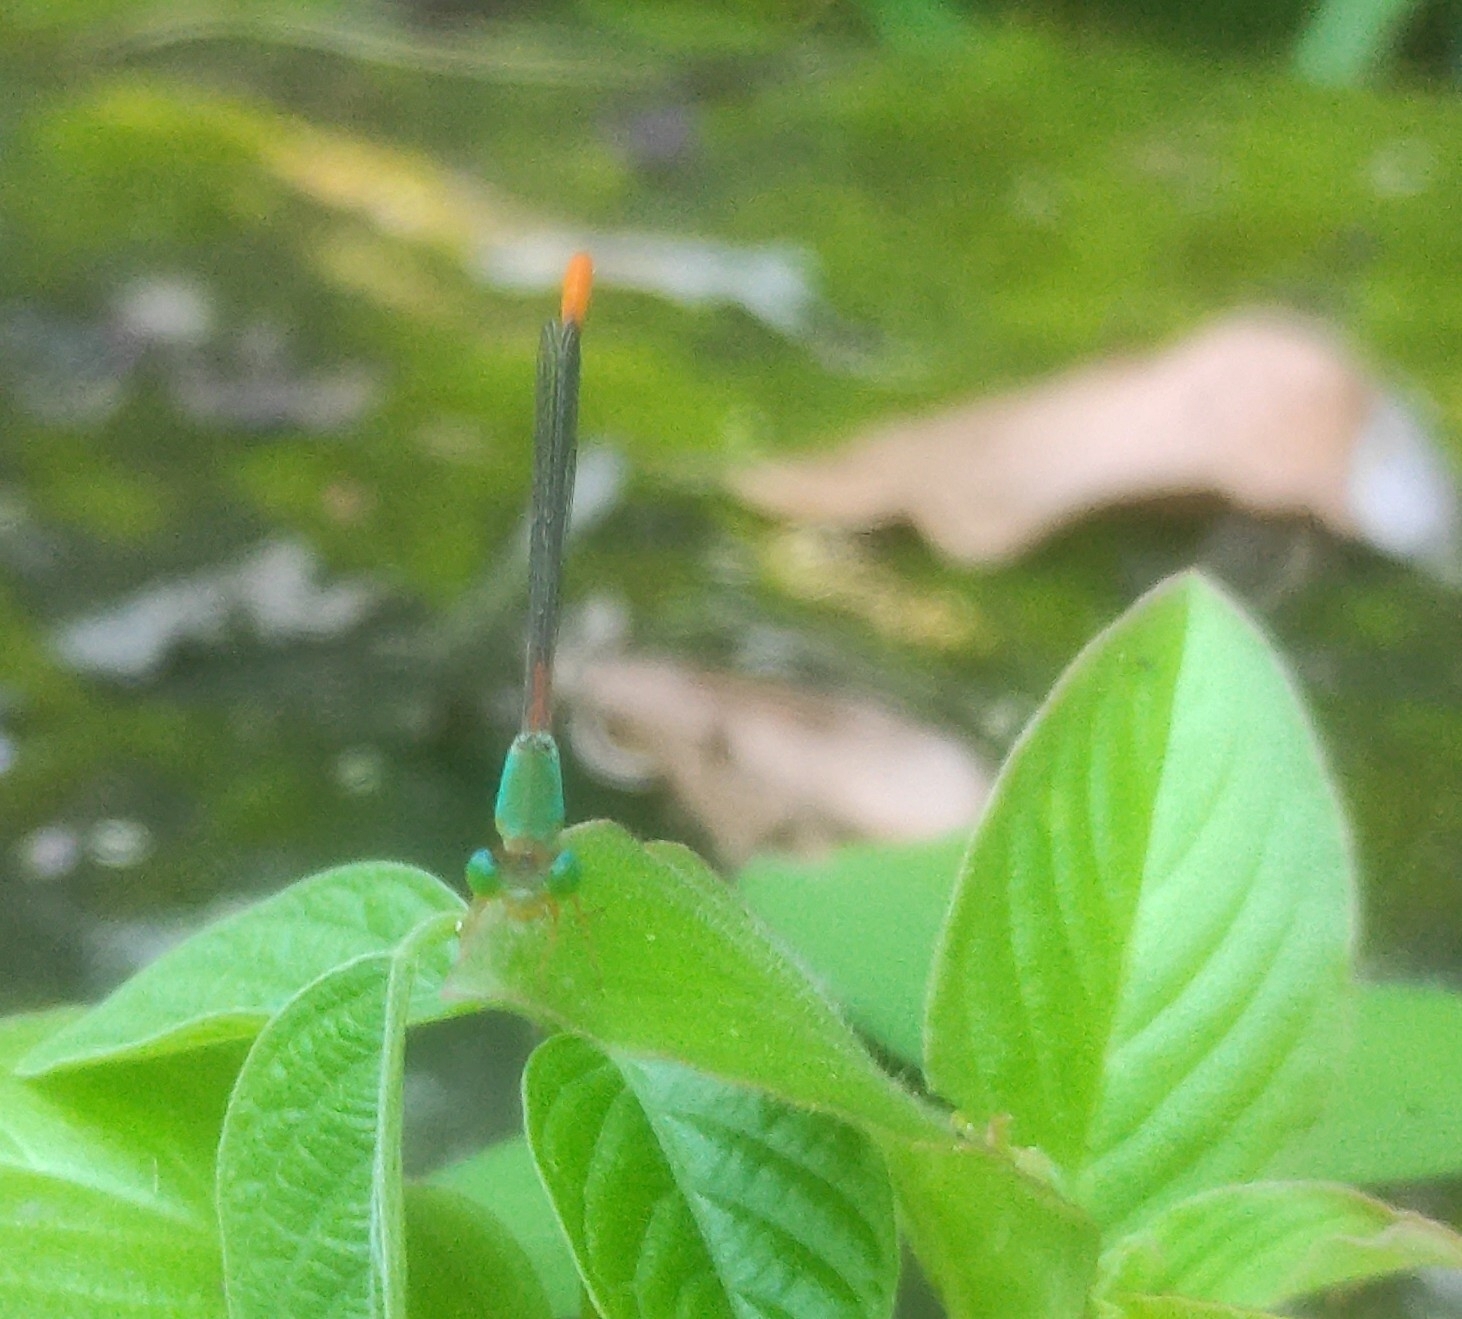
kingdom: Animalia
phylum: Arthropoda
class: Insecta
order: Odonata
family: Coenagrionidae
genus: Ceriagrion
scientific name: Ceriagrion cerinorubellum
